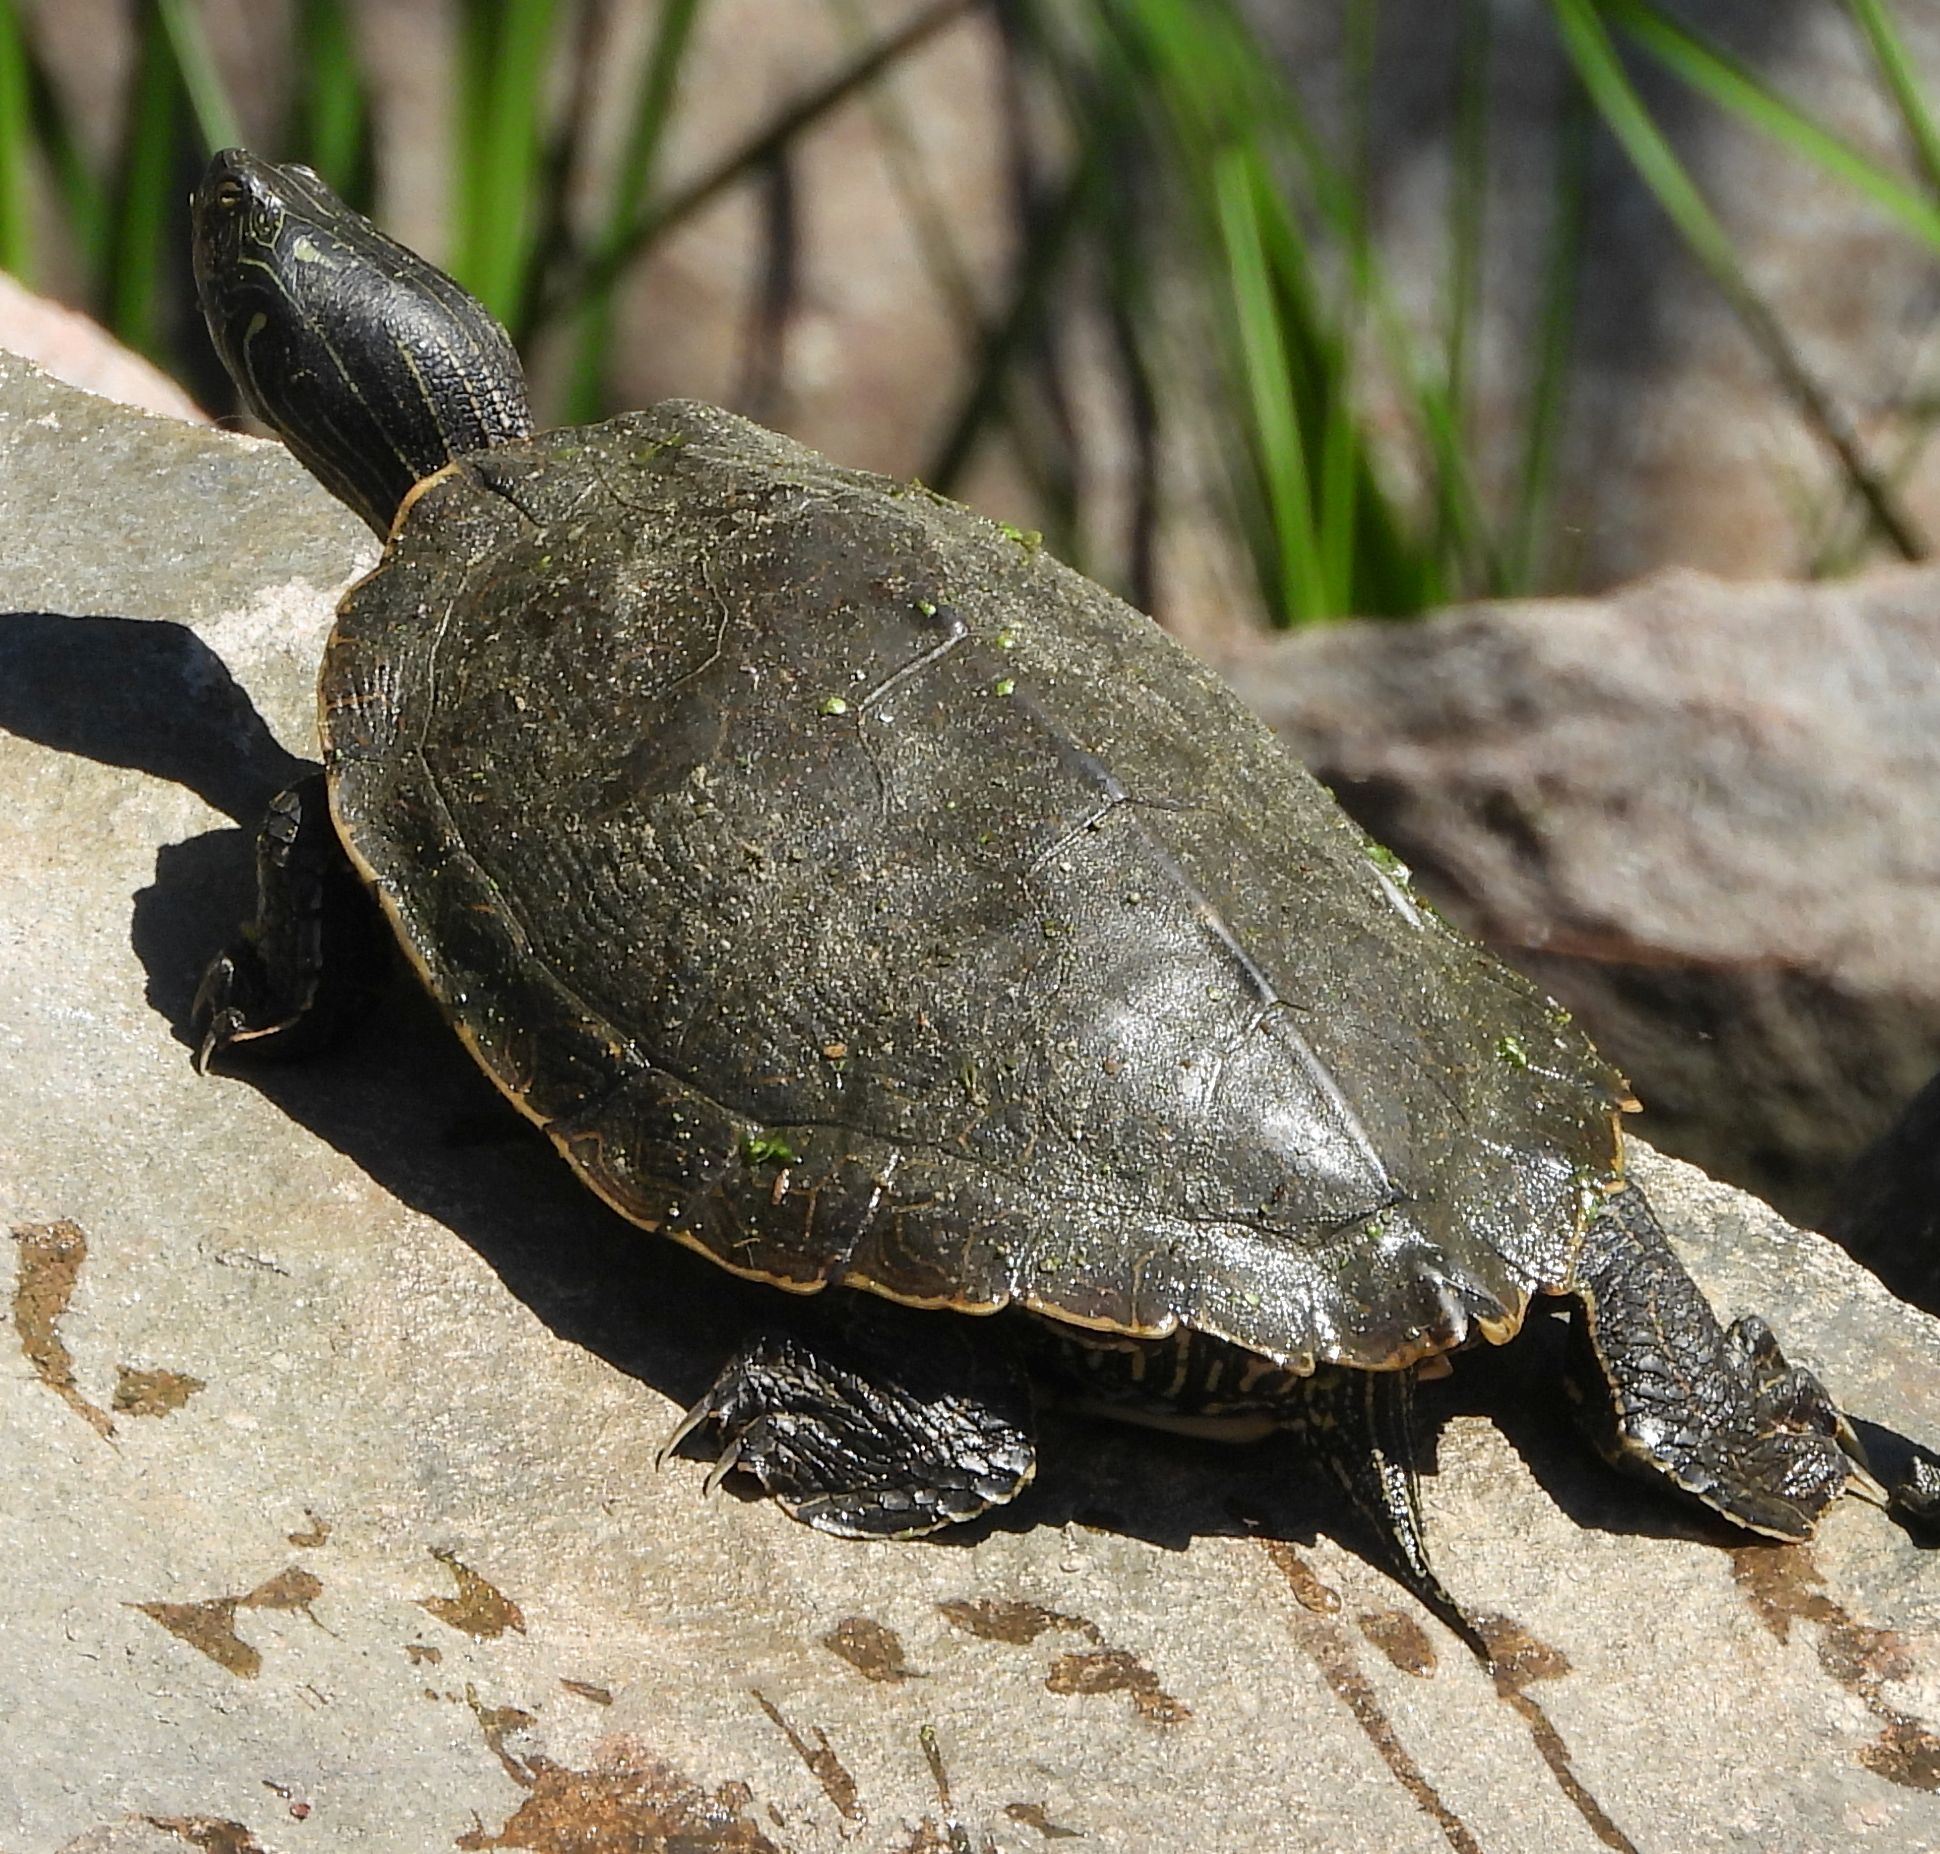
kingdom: Animalia
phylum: Chordata
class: Testudines
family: Emydidae
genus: Graptemys
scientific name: Graptemys geographica
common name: Common map turtle
